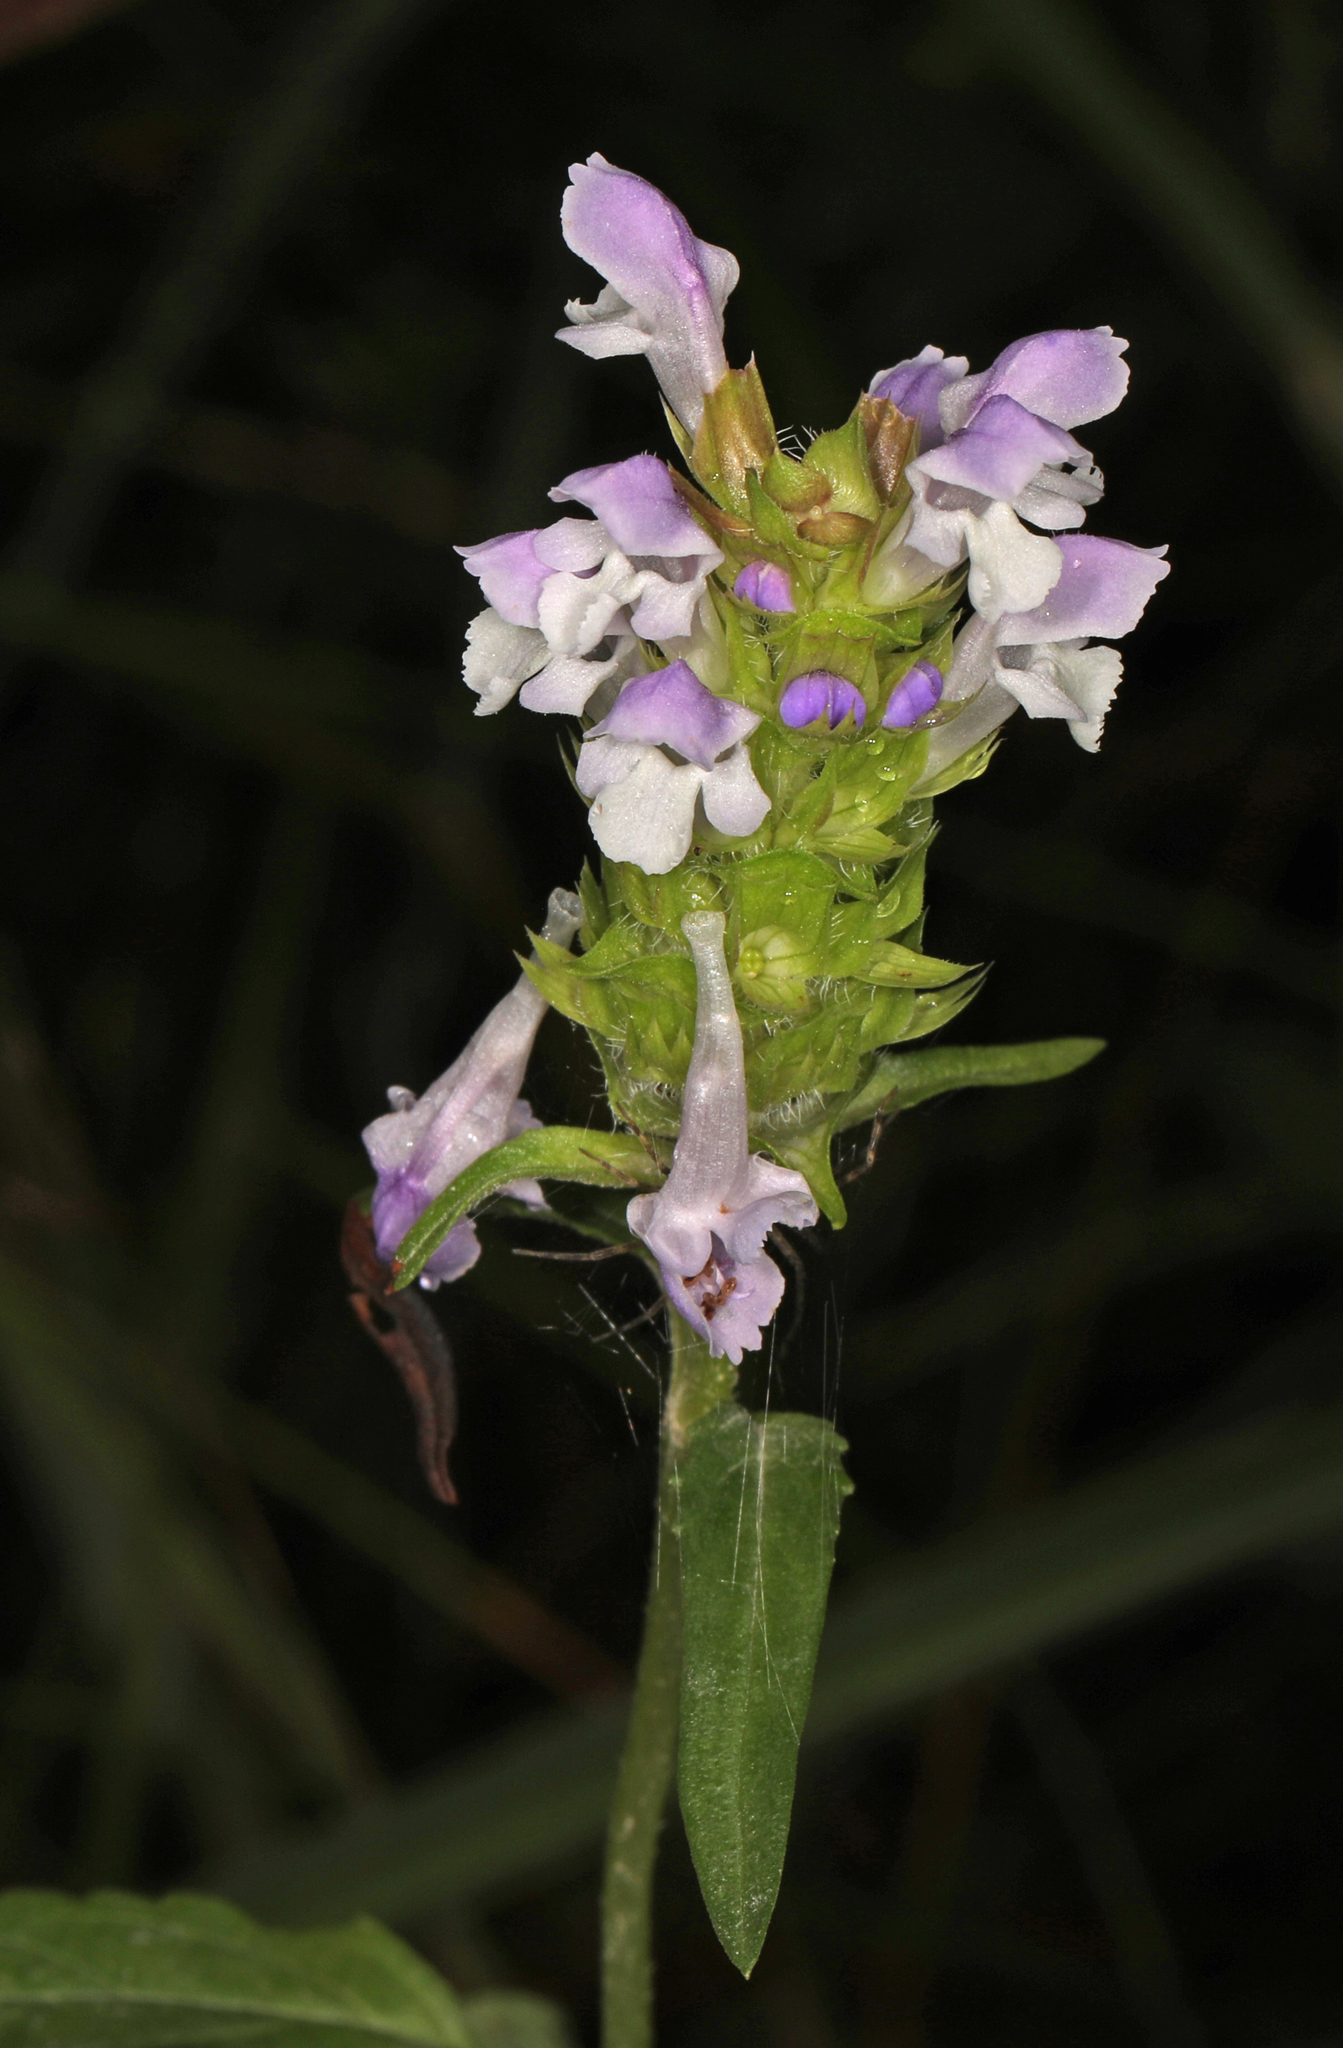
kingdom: Plantae
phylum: Tracheophyta
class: Magnoliopsida
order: Lamiales
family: Lamiaceae
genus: Prunella
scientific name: Prunella vulgaris
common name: Heal-all
